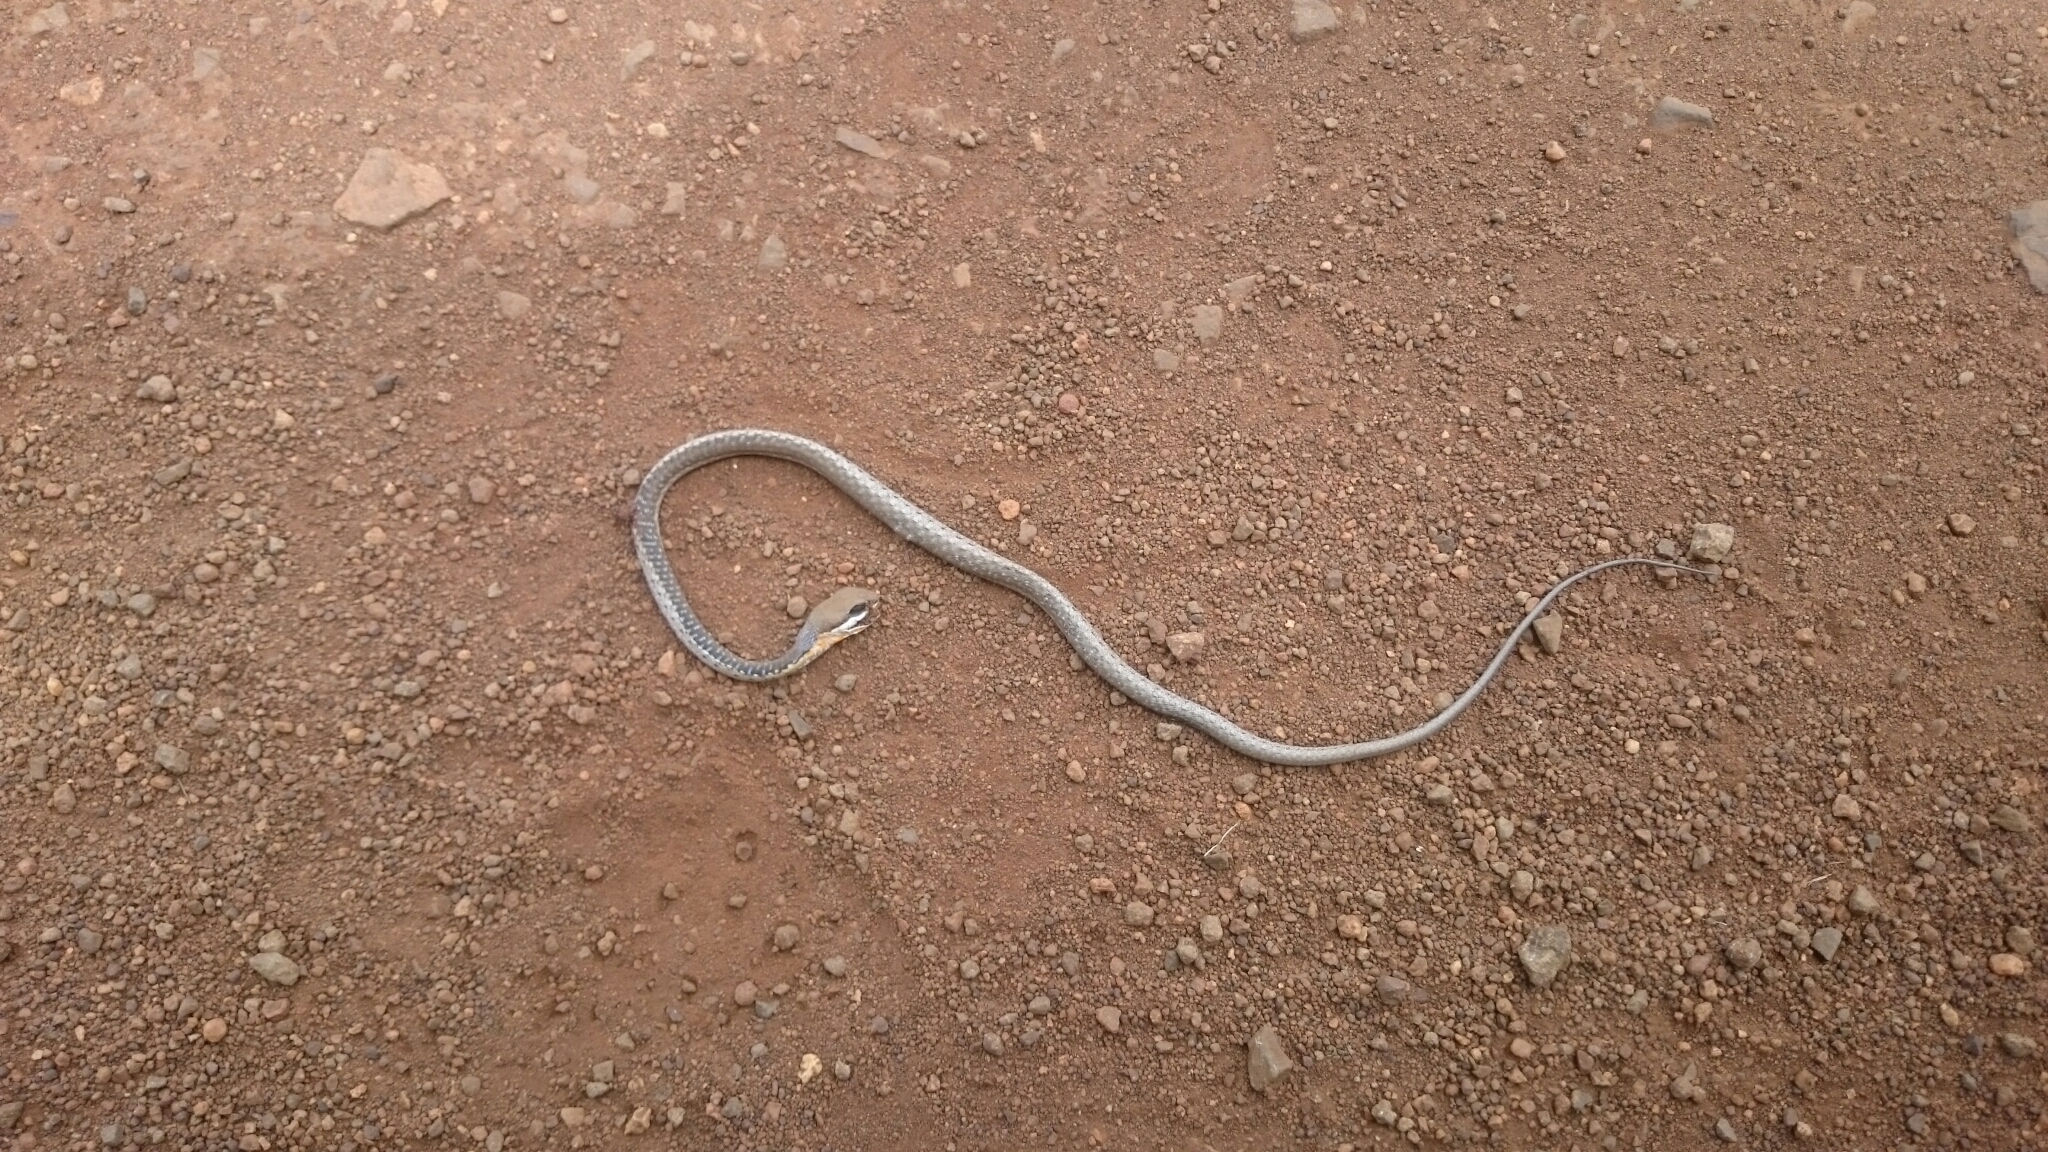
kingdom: Animalia
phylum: Chordata
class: Squamata
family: Colubridae
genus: Dispholidus
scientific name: Dispholidus typus
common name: Boomslang
